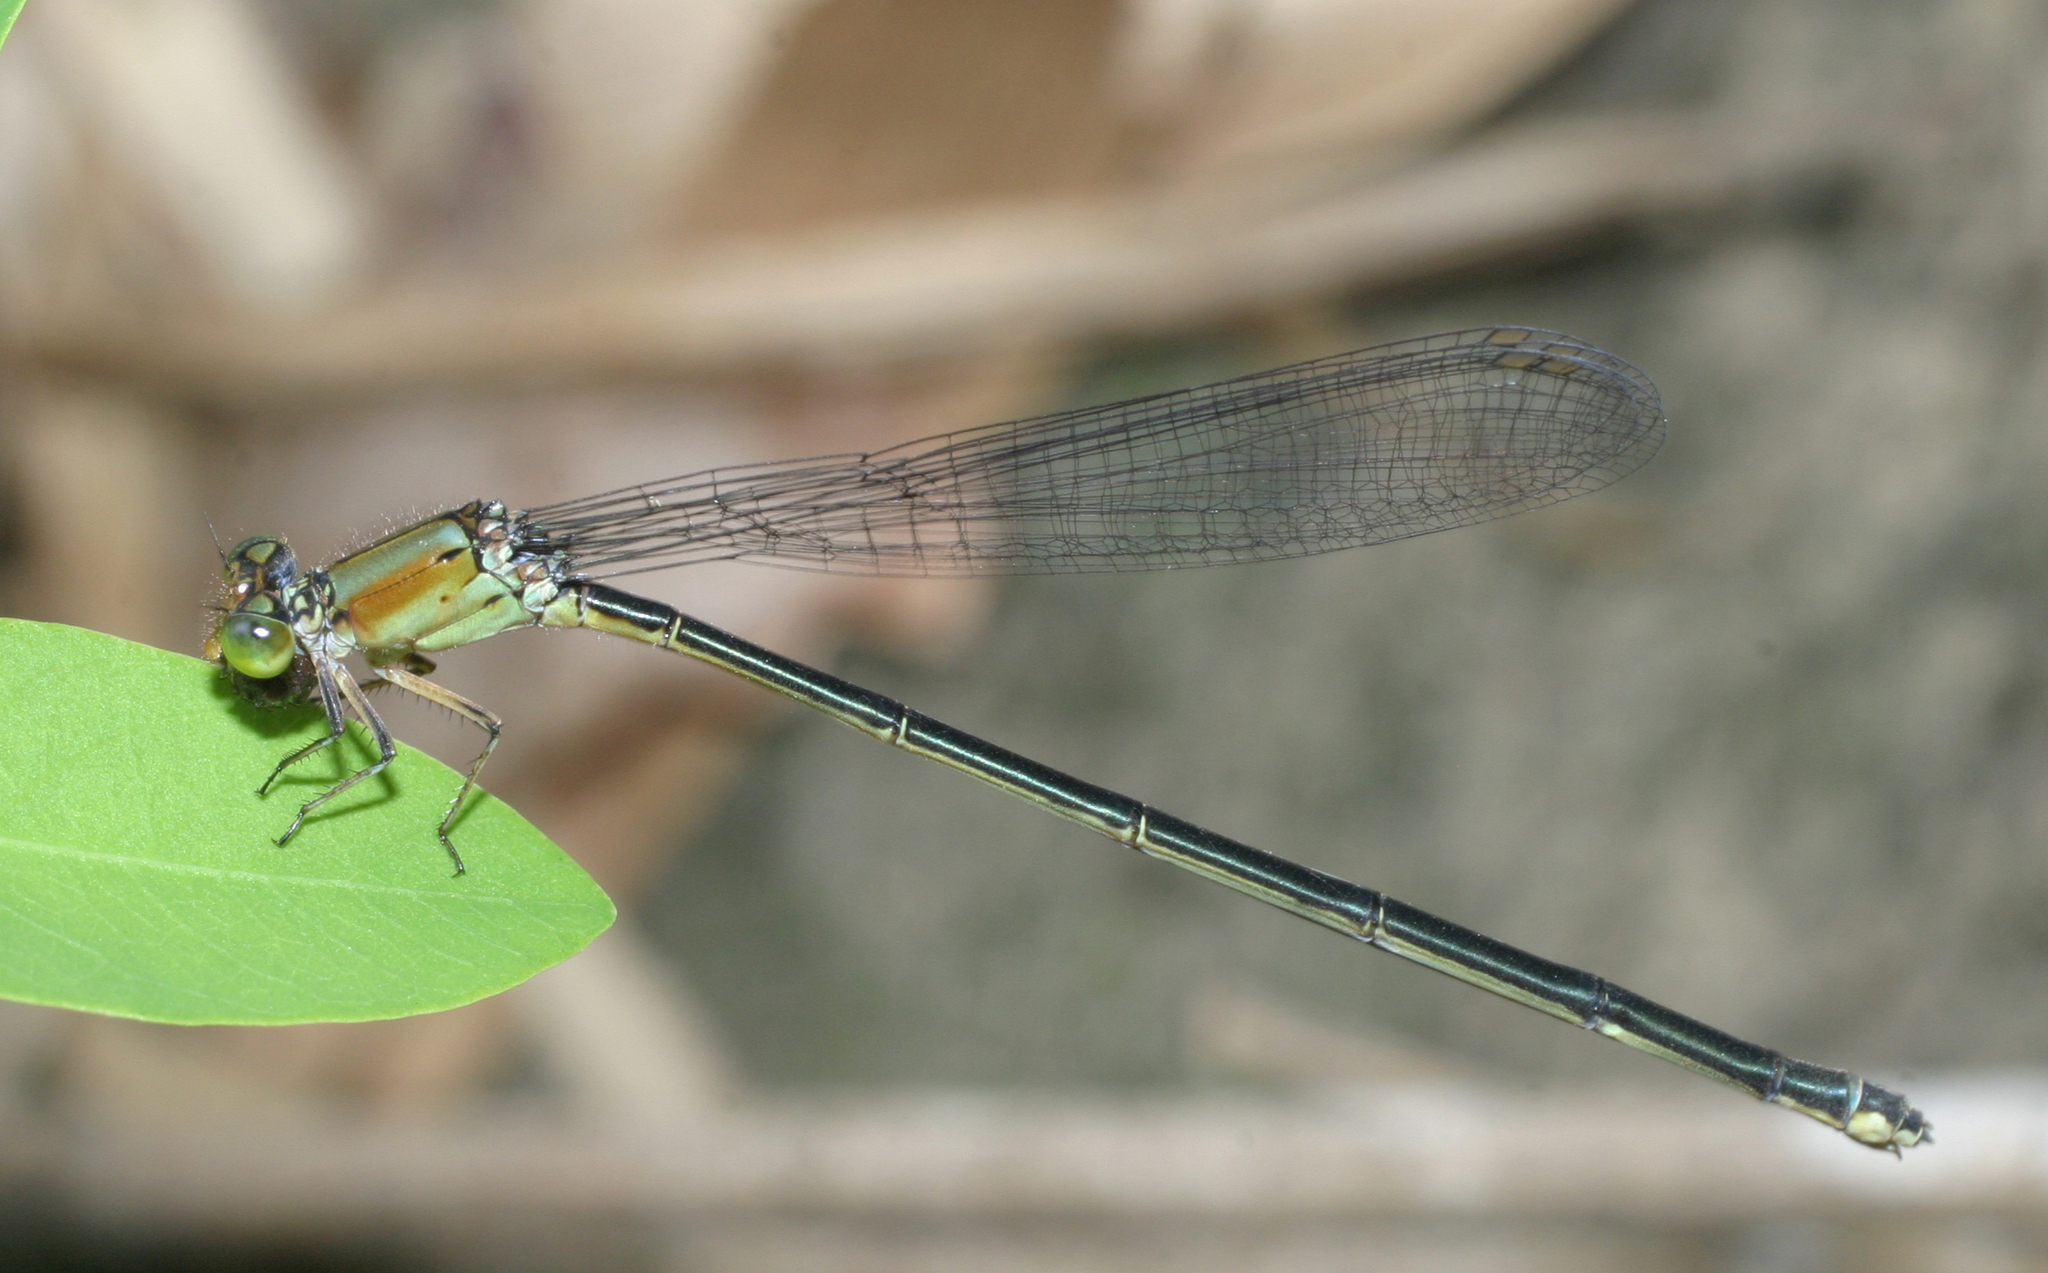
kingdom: Animalia
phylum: Arthropoda
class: Insecta
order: Odonata
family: Coenagrionidae
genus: Pseudagrion
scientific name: Pseudagrion pruinosum
